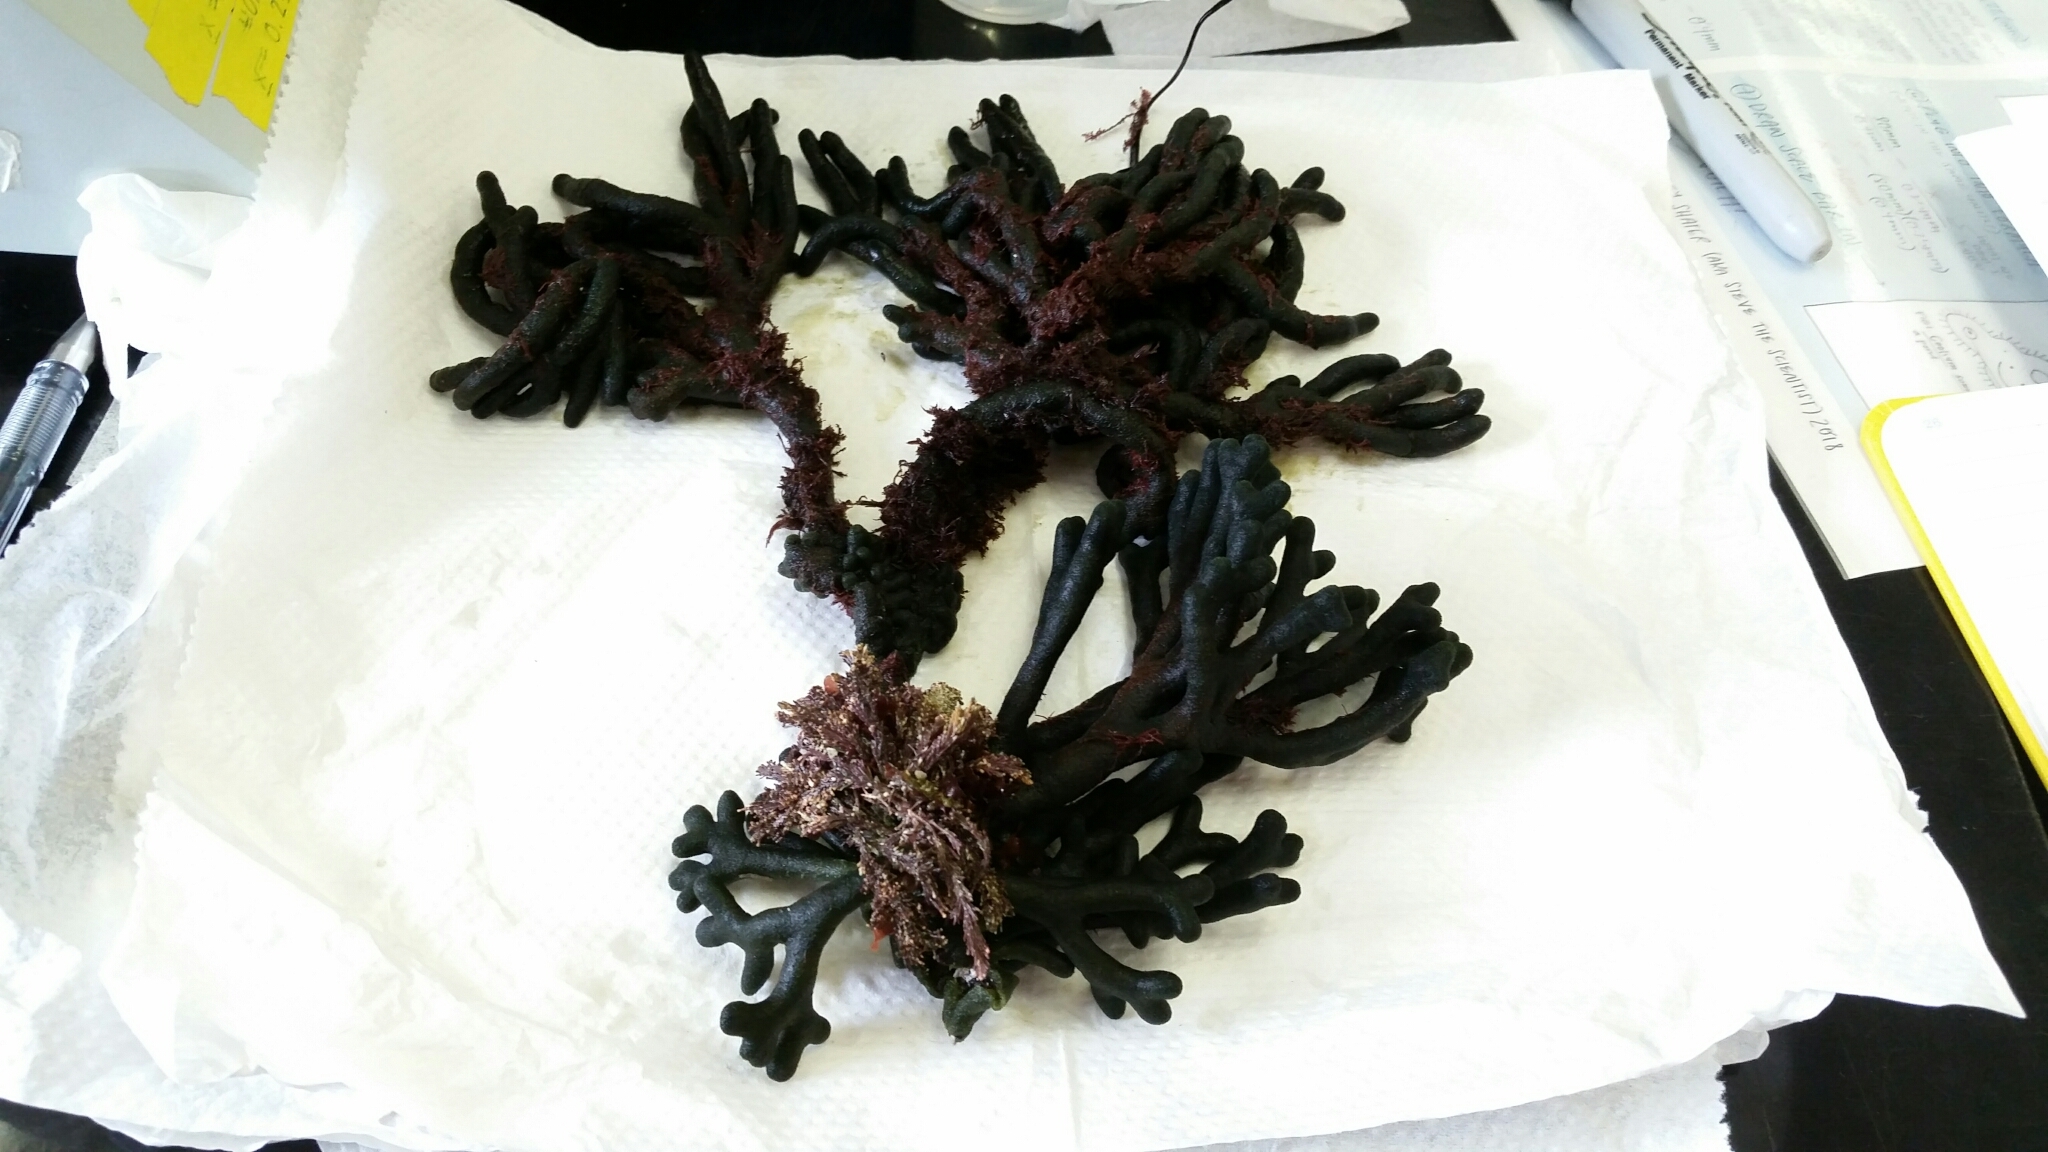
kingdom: Plantae
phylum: Chlorophyta
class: Ulvophyceae
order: Bryopsidales
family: Codiaceae
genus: Codium
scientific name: Codium fragile
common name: Dead man's fingers
